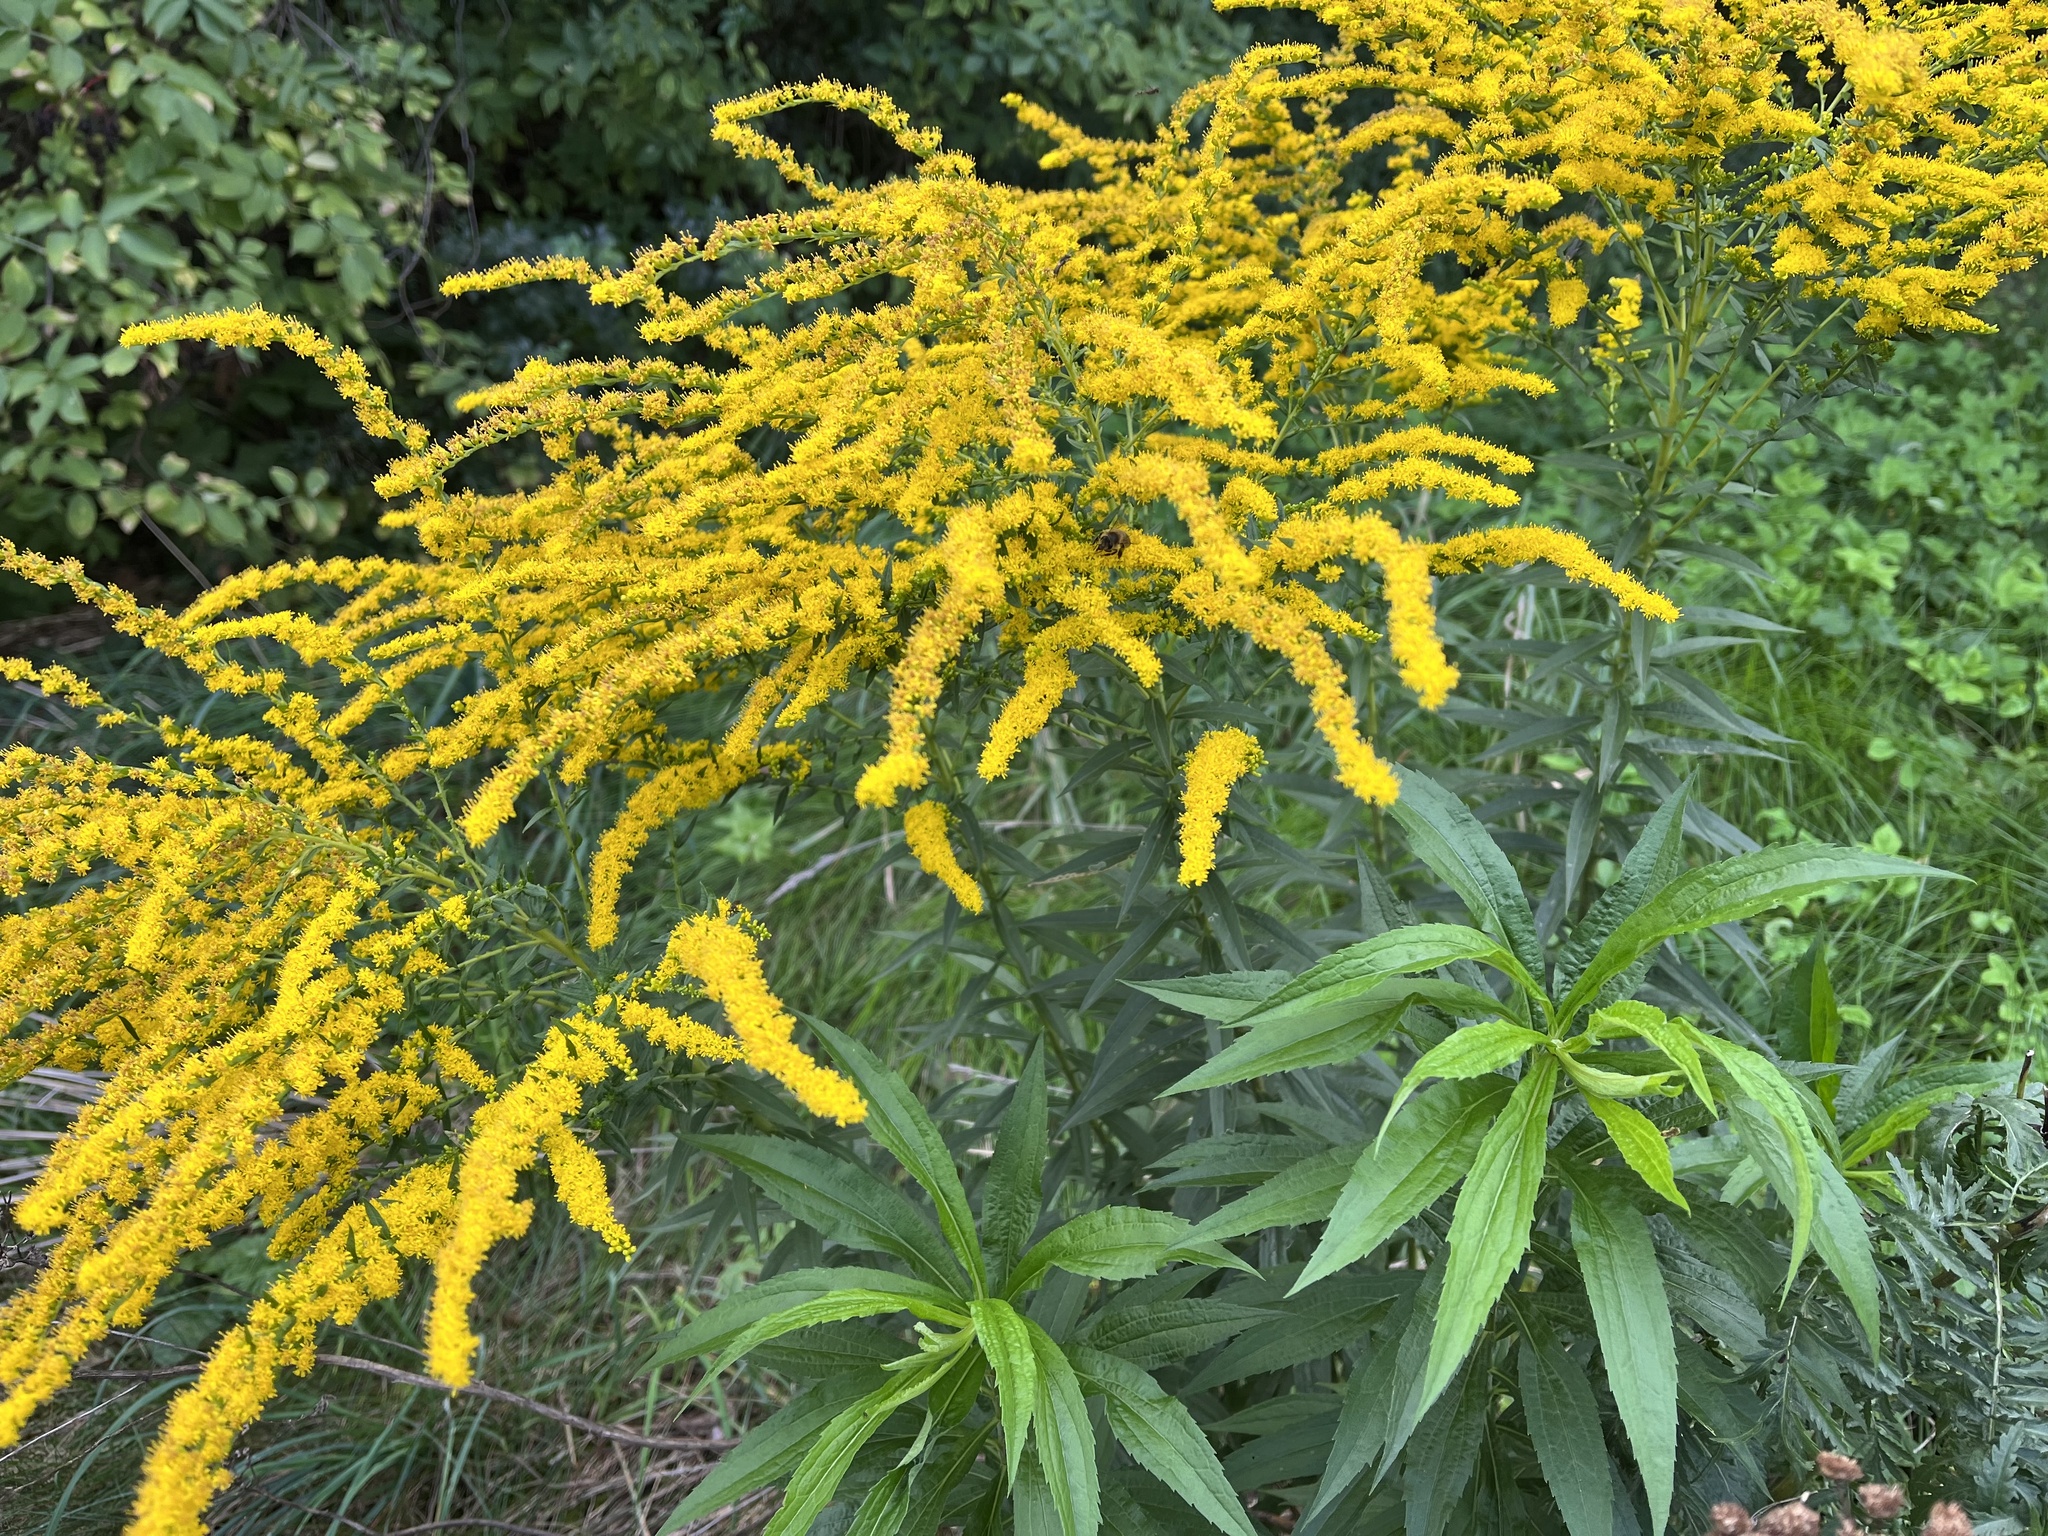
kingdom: Plantae
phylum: Tracheophyta
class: Magnoliopsida
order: Asterales
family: Asteraceae
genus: Solidago
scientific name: Solidago canadensis
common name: Canada goldenrod
